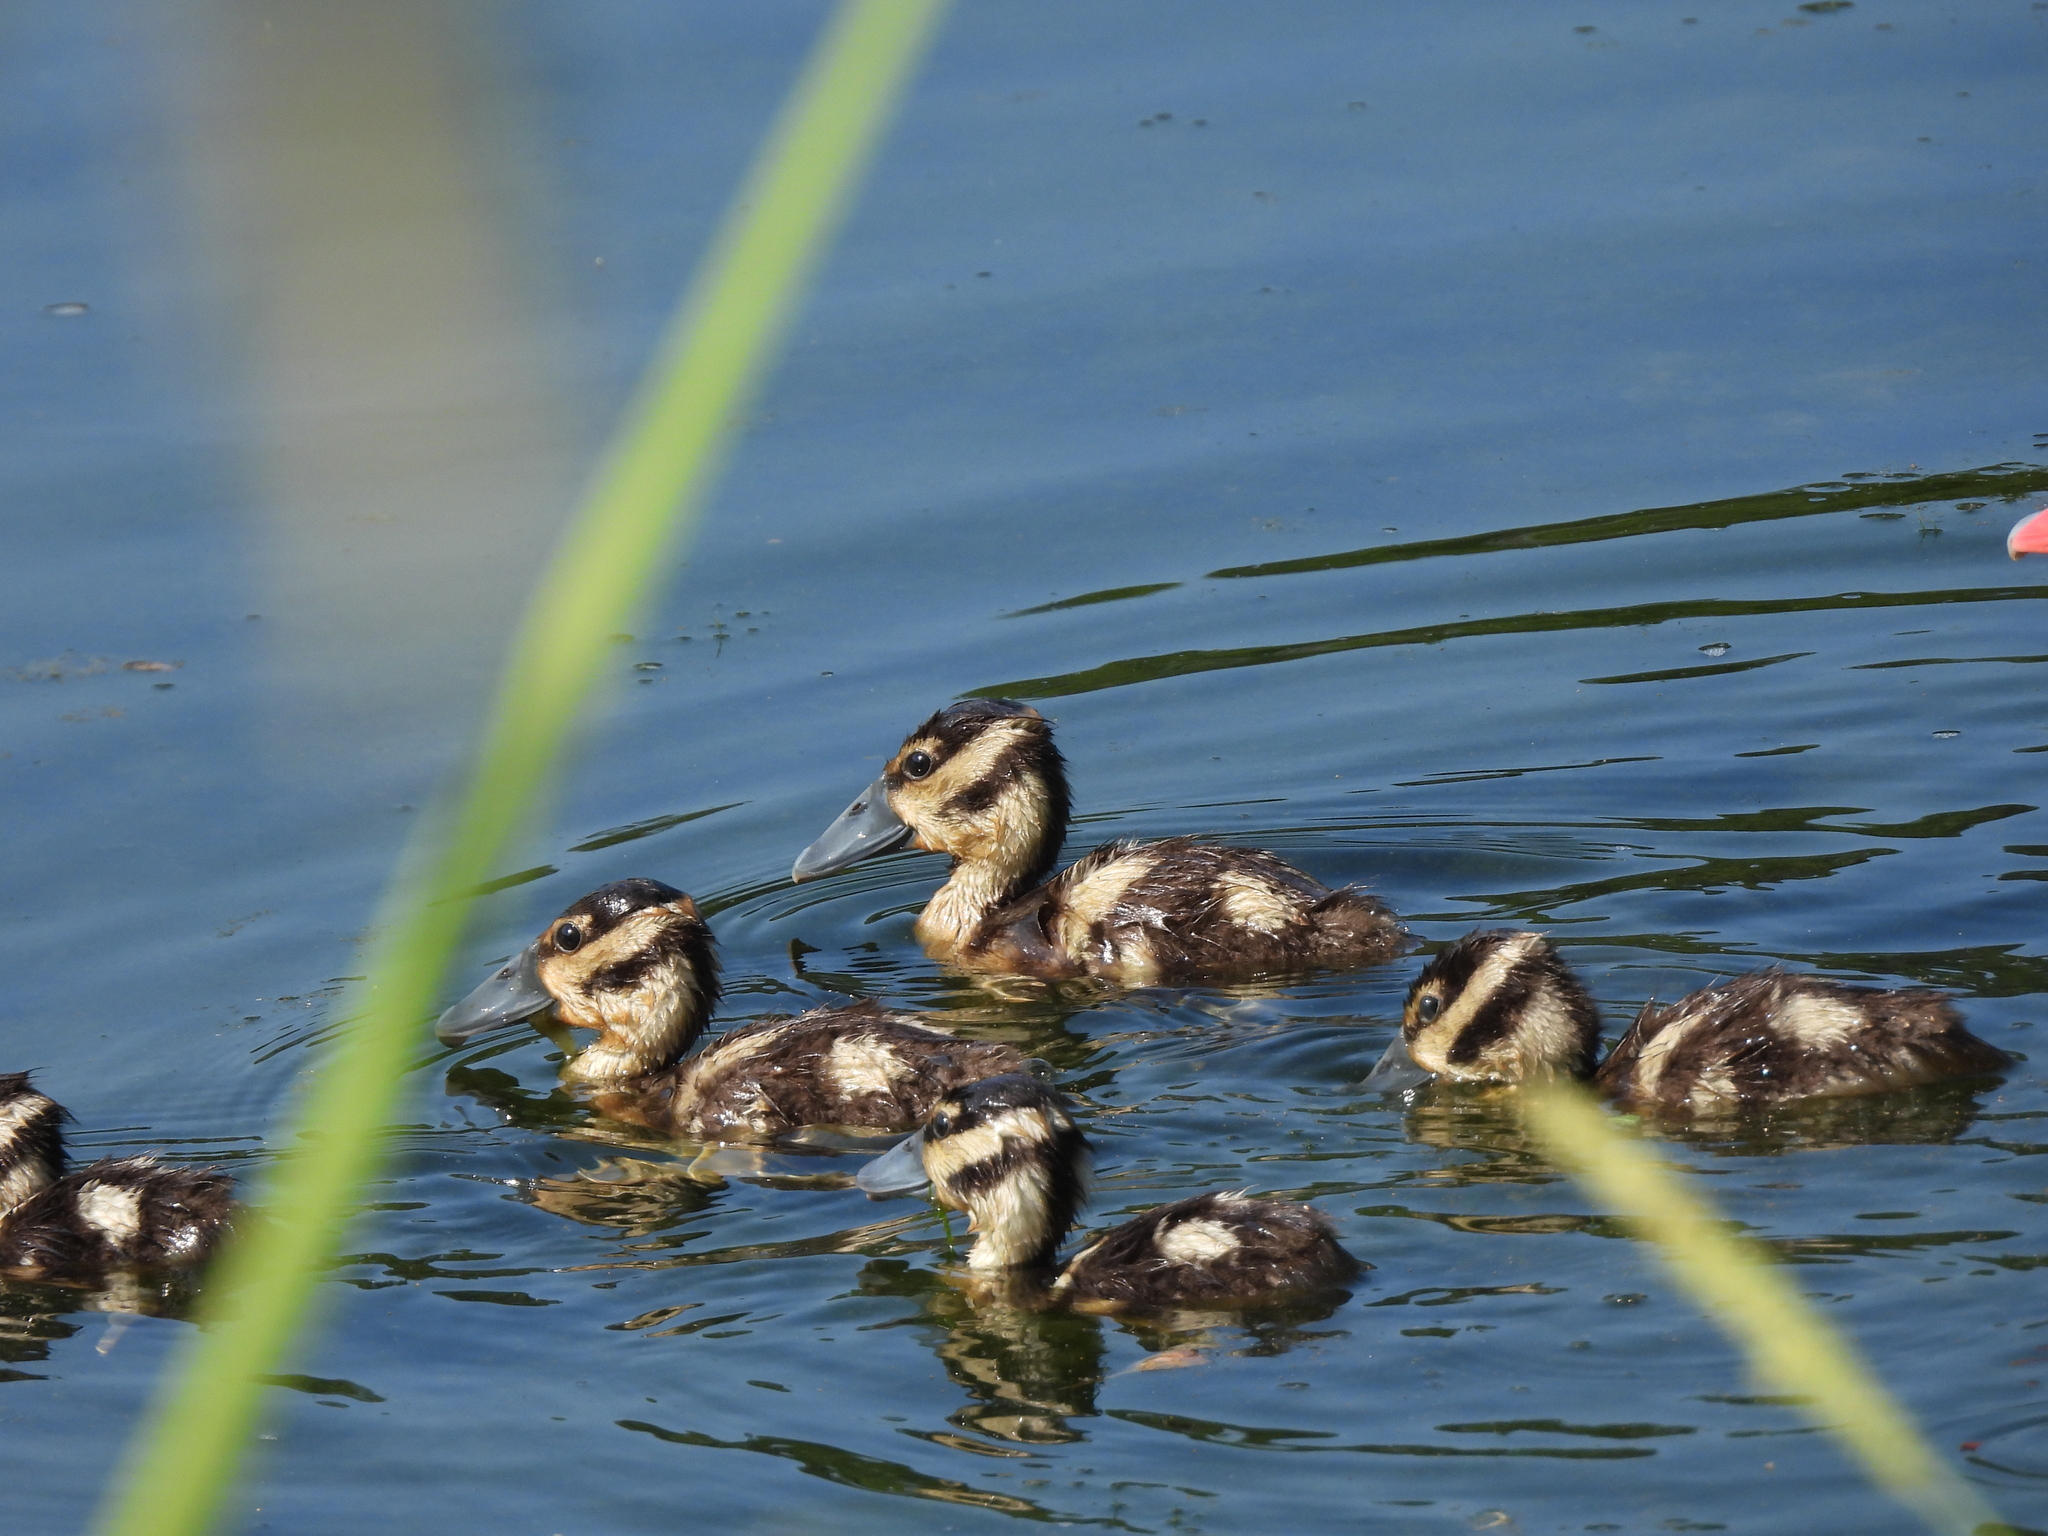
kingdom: Animalia
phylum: Chordata
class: Aves
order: Anseriformes
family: Anatidae
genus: Dendrocygna
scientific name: Dendrocygna autumnalis
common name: Black-bellied whistling duck
